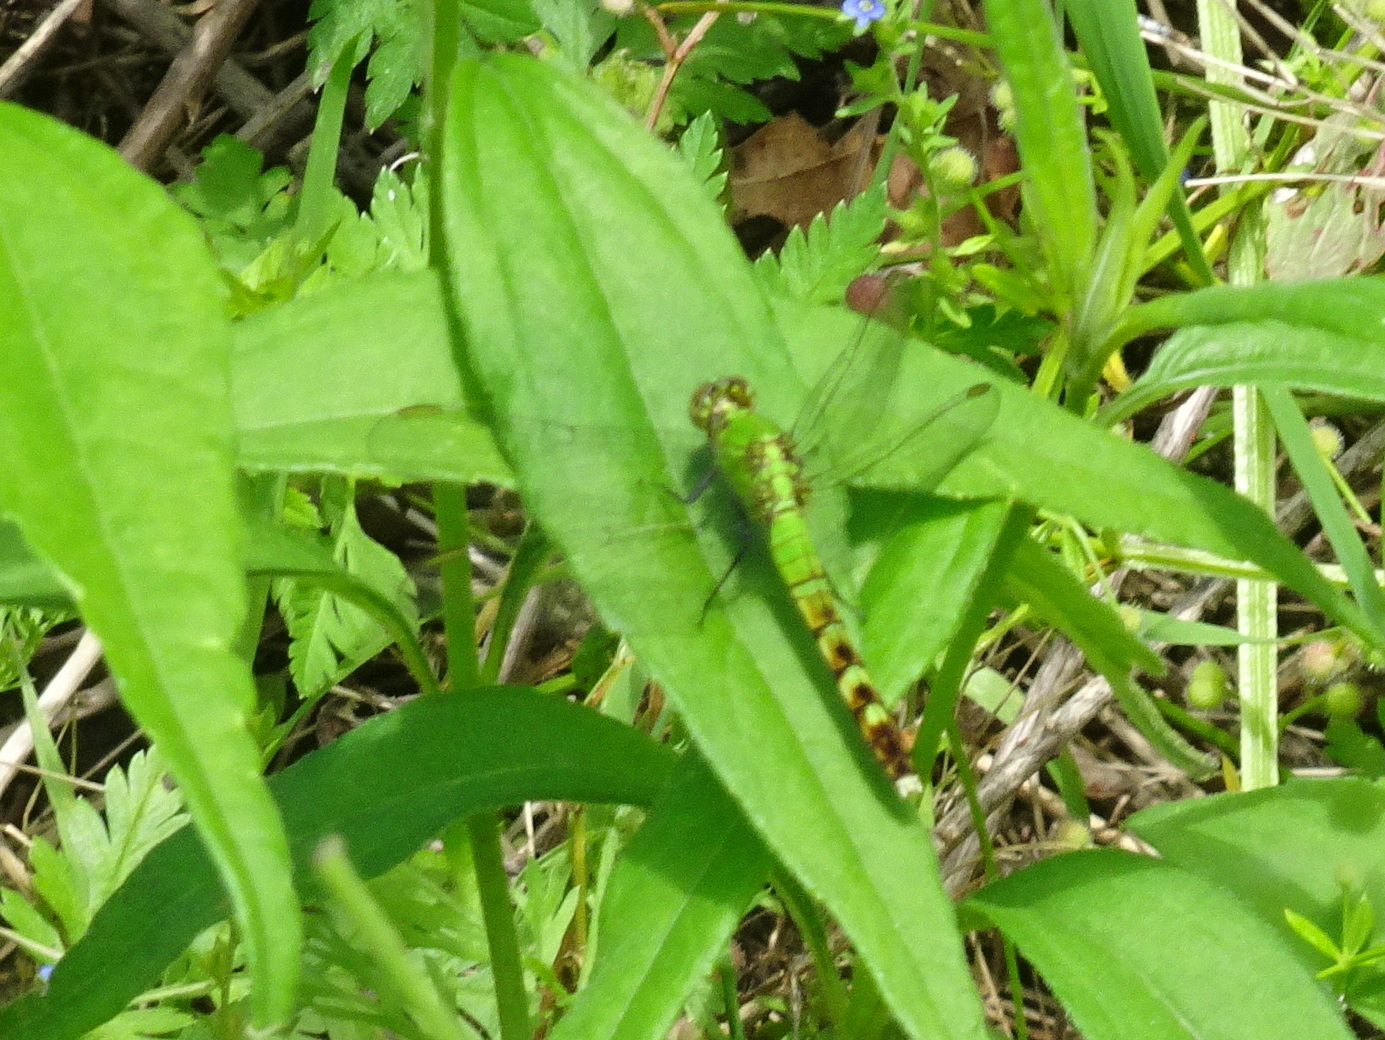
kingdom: Animalia
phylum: Arthropoda
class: Insecta
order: Odonata
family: Libellulidae
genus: Erythemis
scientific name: Erythemis simplicicollis
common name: Eastern pondhawk
